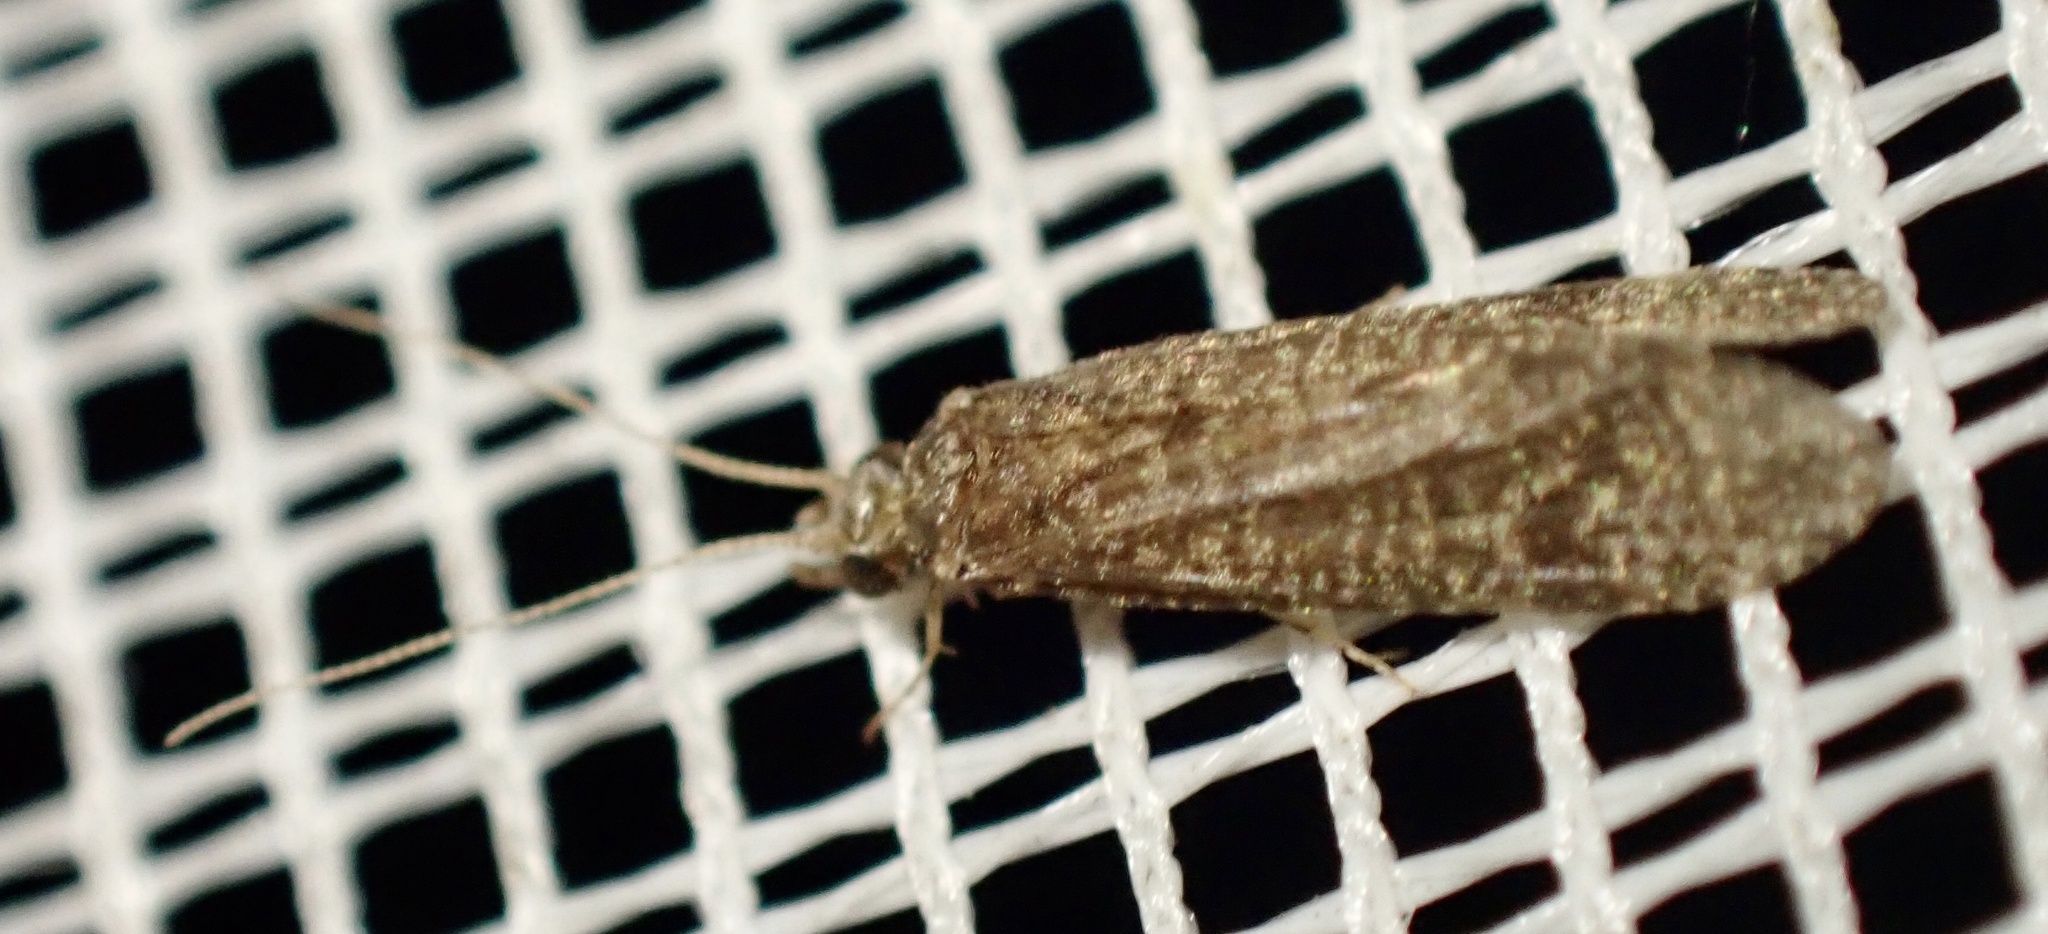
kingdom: Animalia
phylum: Arthropoda
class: Insecta
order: Trichoptera
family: Ecnomidae
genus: Ecnomus
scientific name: Ecnomus tenellus
